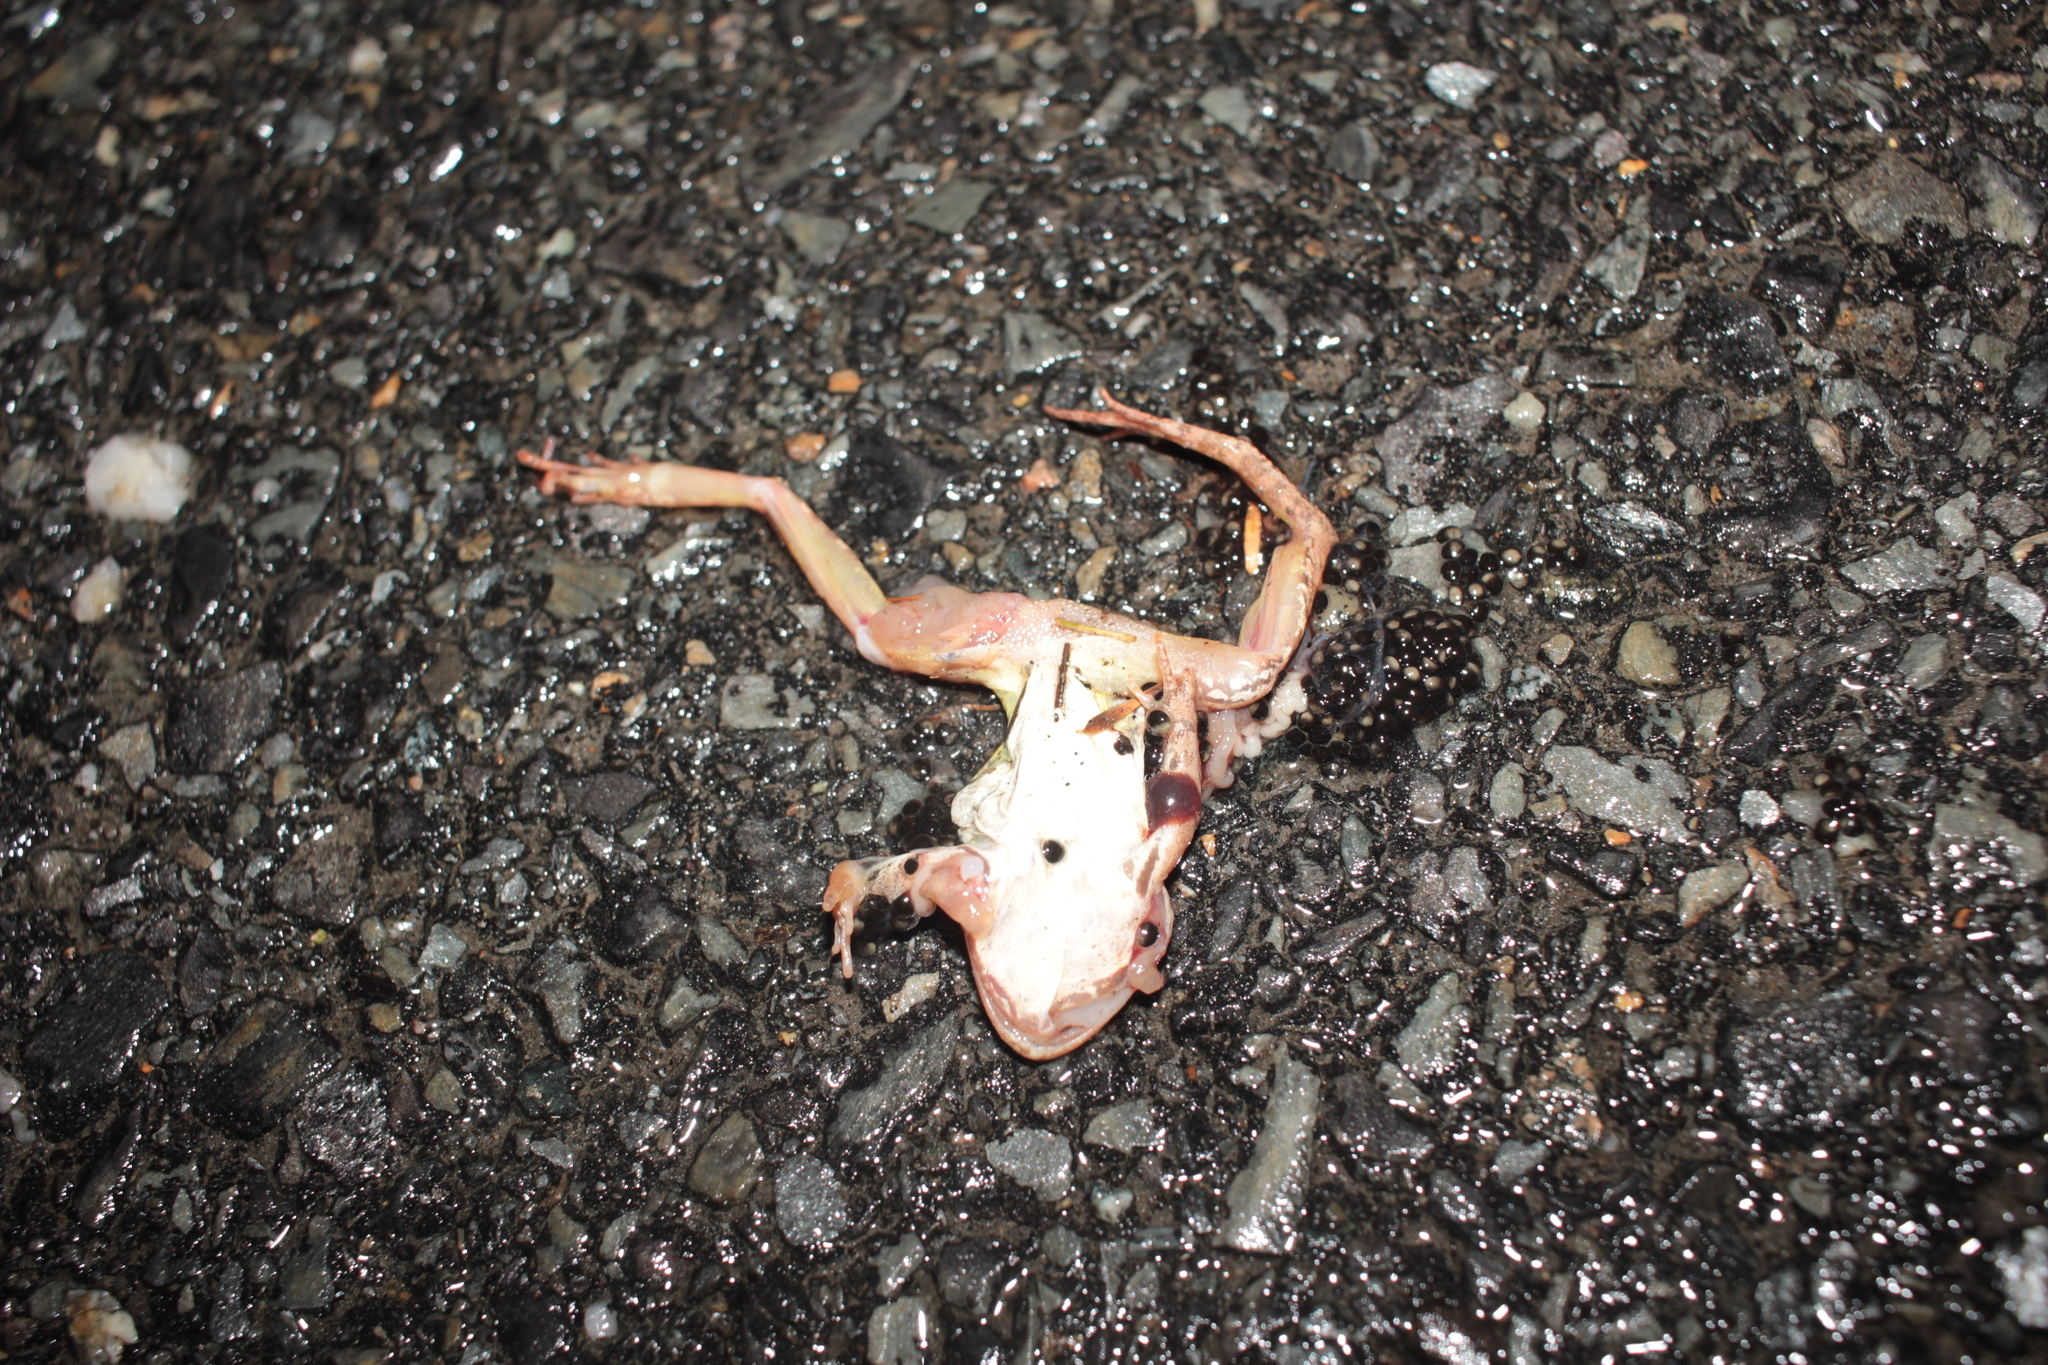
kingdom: Animalia
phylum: Chordata
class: Amphibia
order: Anura
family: Ranidae
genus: Lithobates
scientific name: Lithobates sylvaticus
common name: Wood frog
